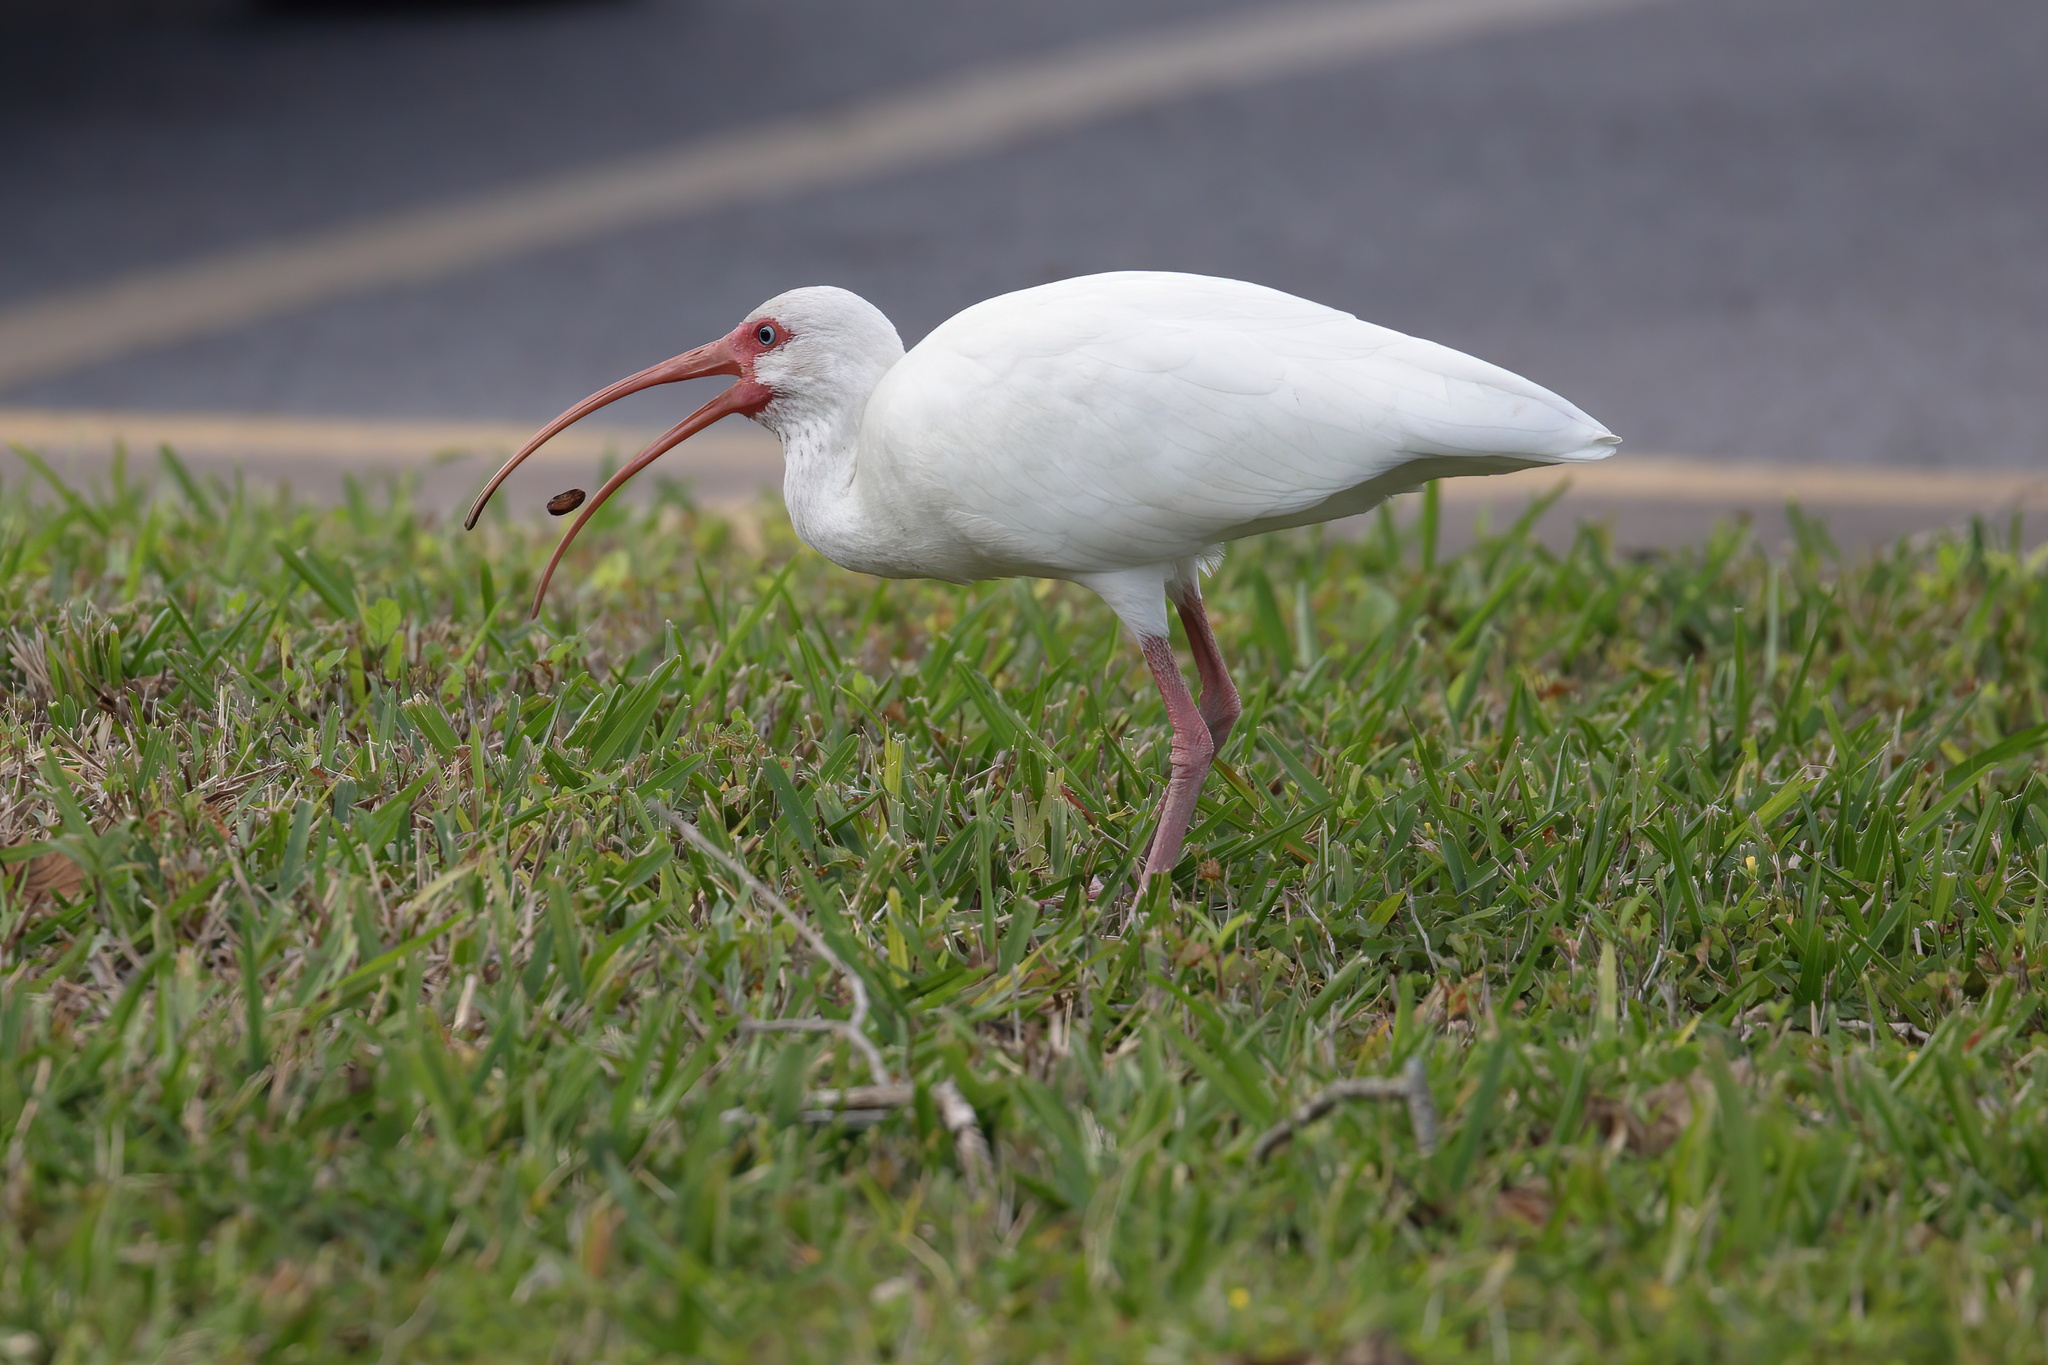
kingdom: Animalia
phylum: Chordata
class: Aves
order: Pelecaniformes
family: Threskiornithidae
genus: Eudocimus
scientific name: Eudocimus albus
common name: White ibis
